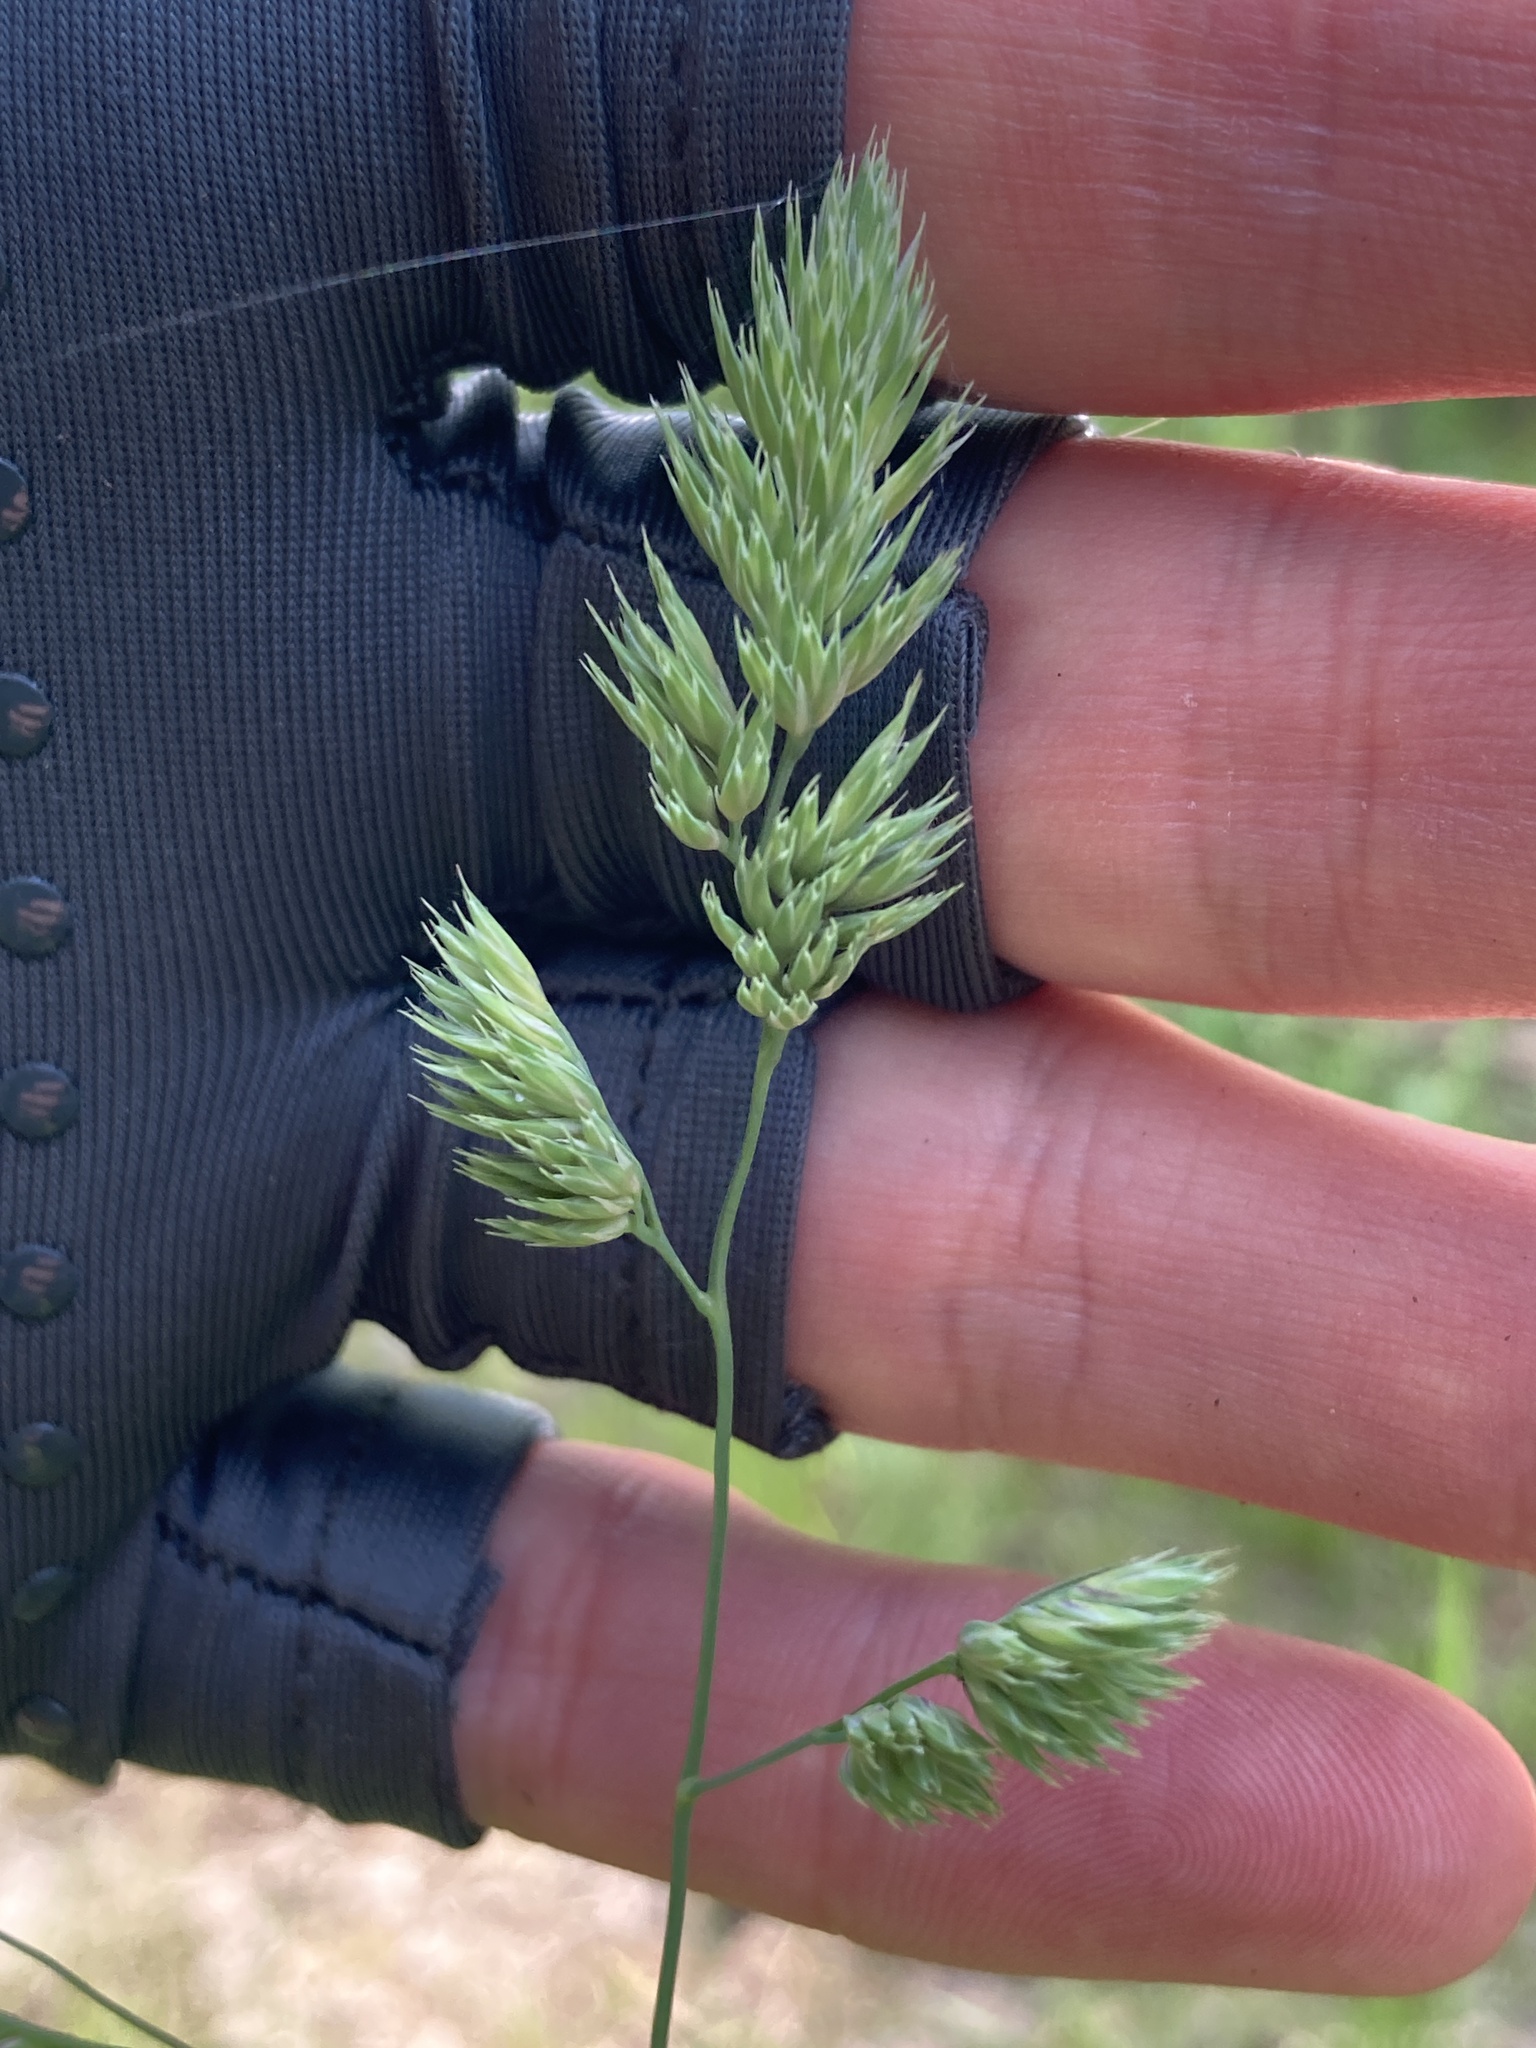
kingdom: Plantae
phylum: Tracheophyta
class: Liliopsida
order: Poales
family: Poaceae
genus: Dactylis
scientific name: Dactylis glomerata
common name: Orchardgrass
